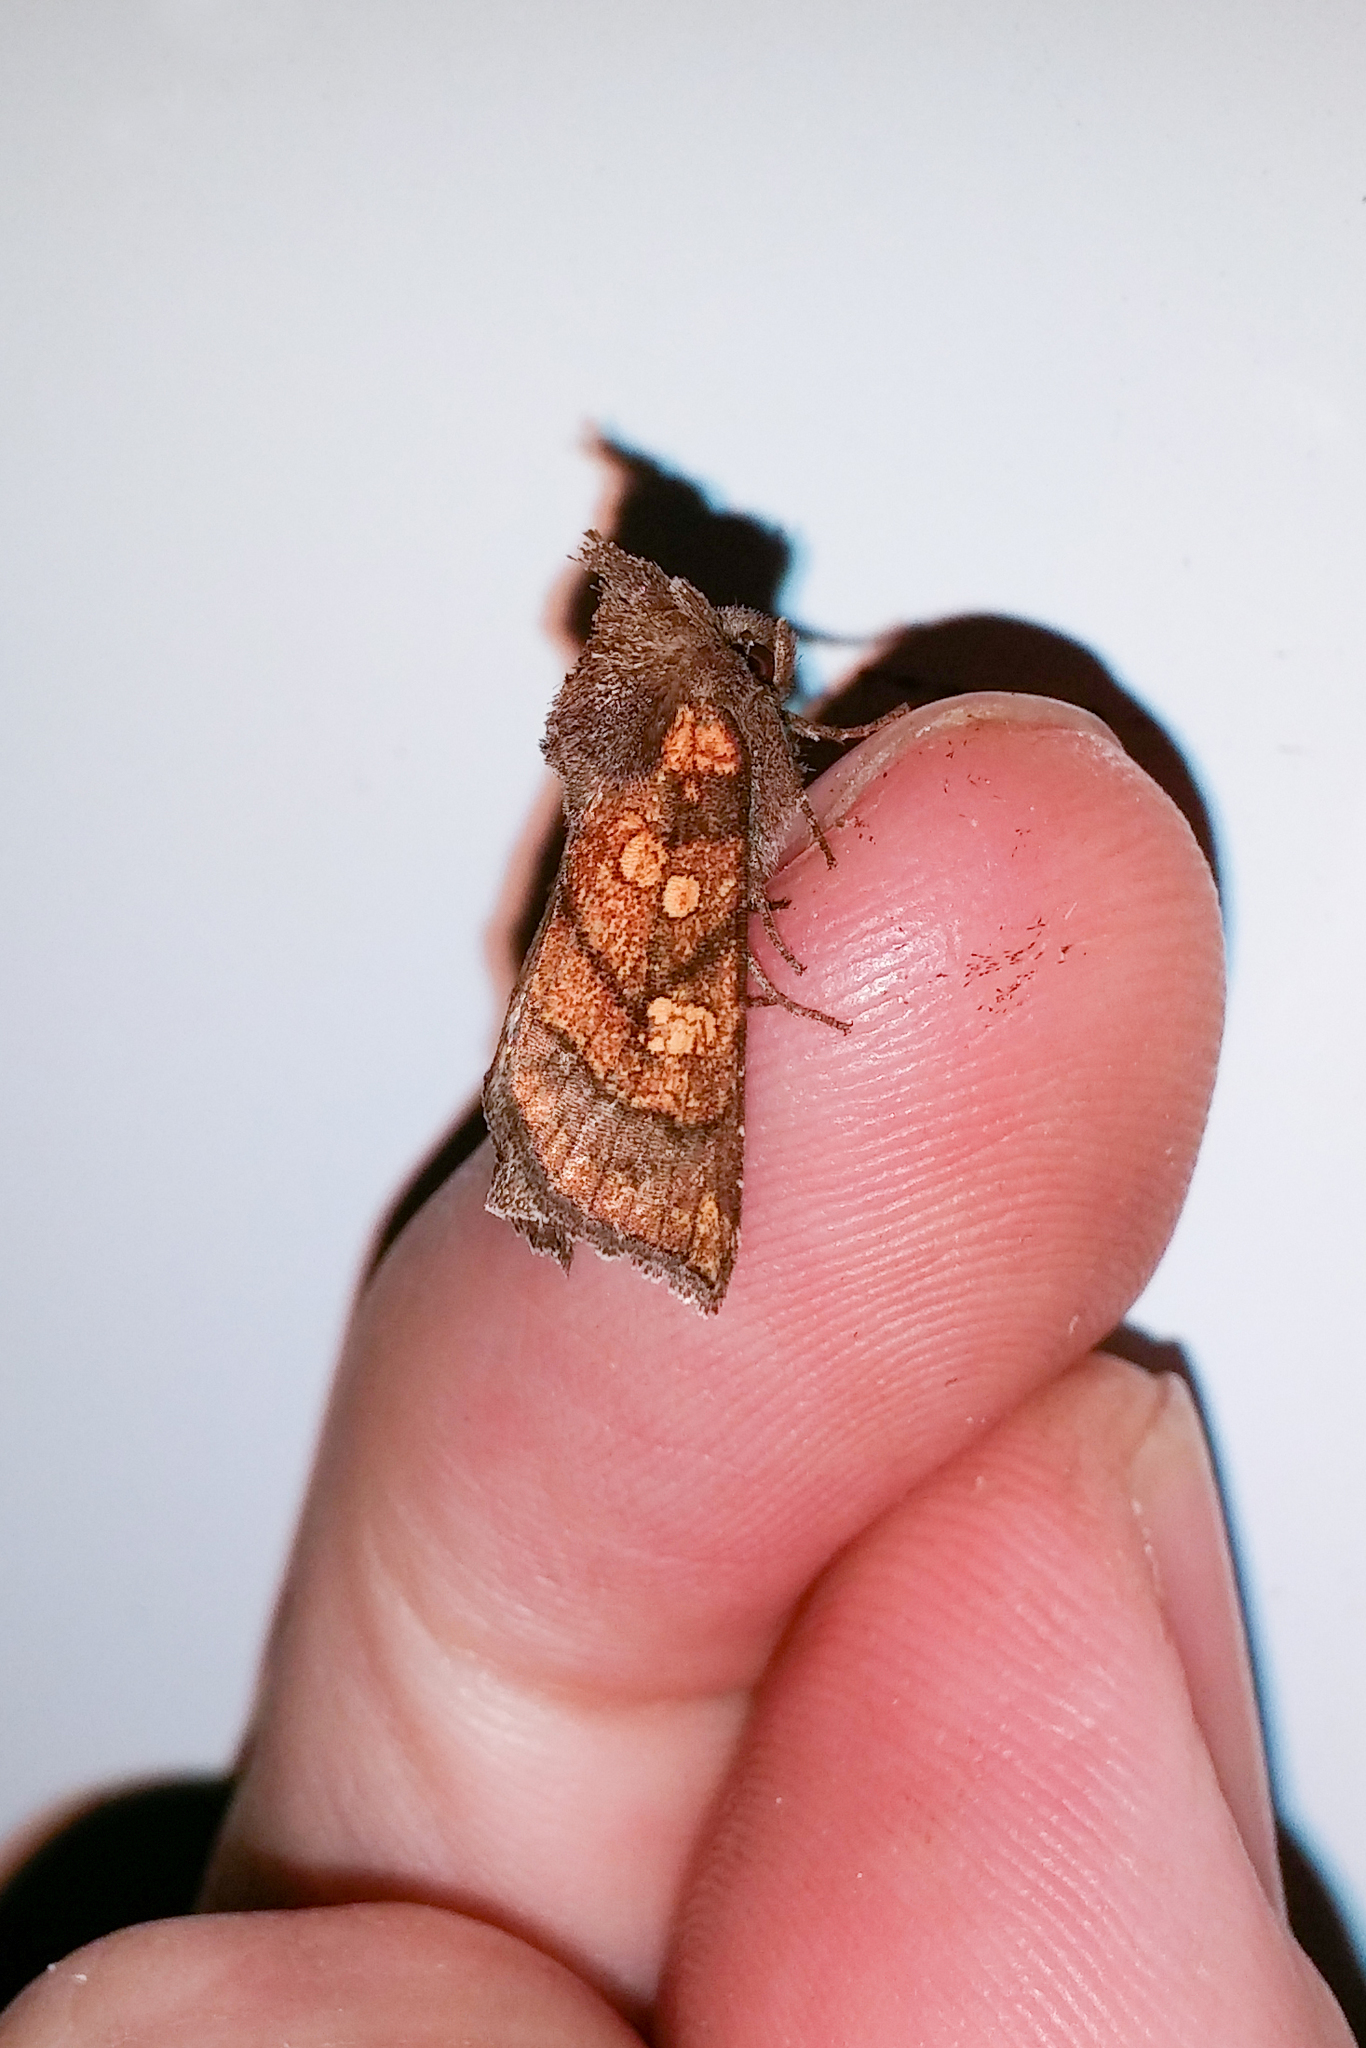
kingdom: Animalia
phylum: Arthropoda
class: Insecta
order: Lepidoptera
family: Noctuidae
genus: Papaipema
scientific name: Papaipema impecuniosa
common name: Aster borer moth
